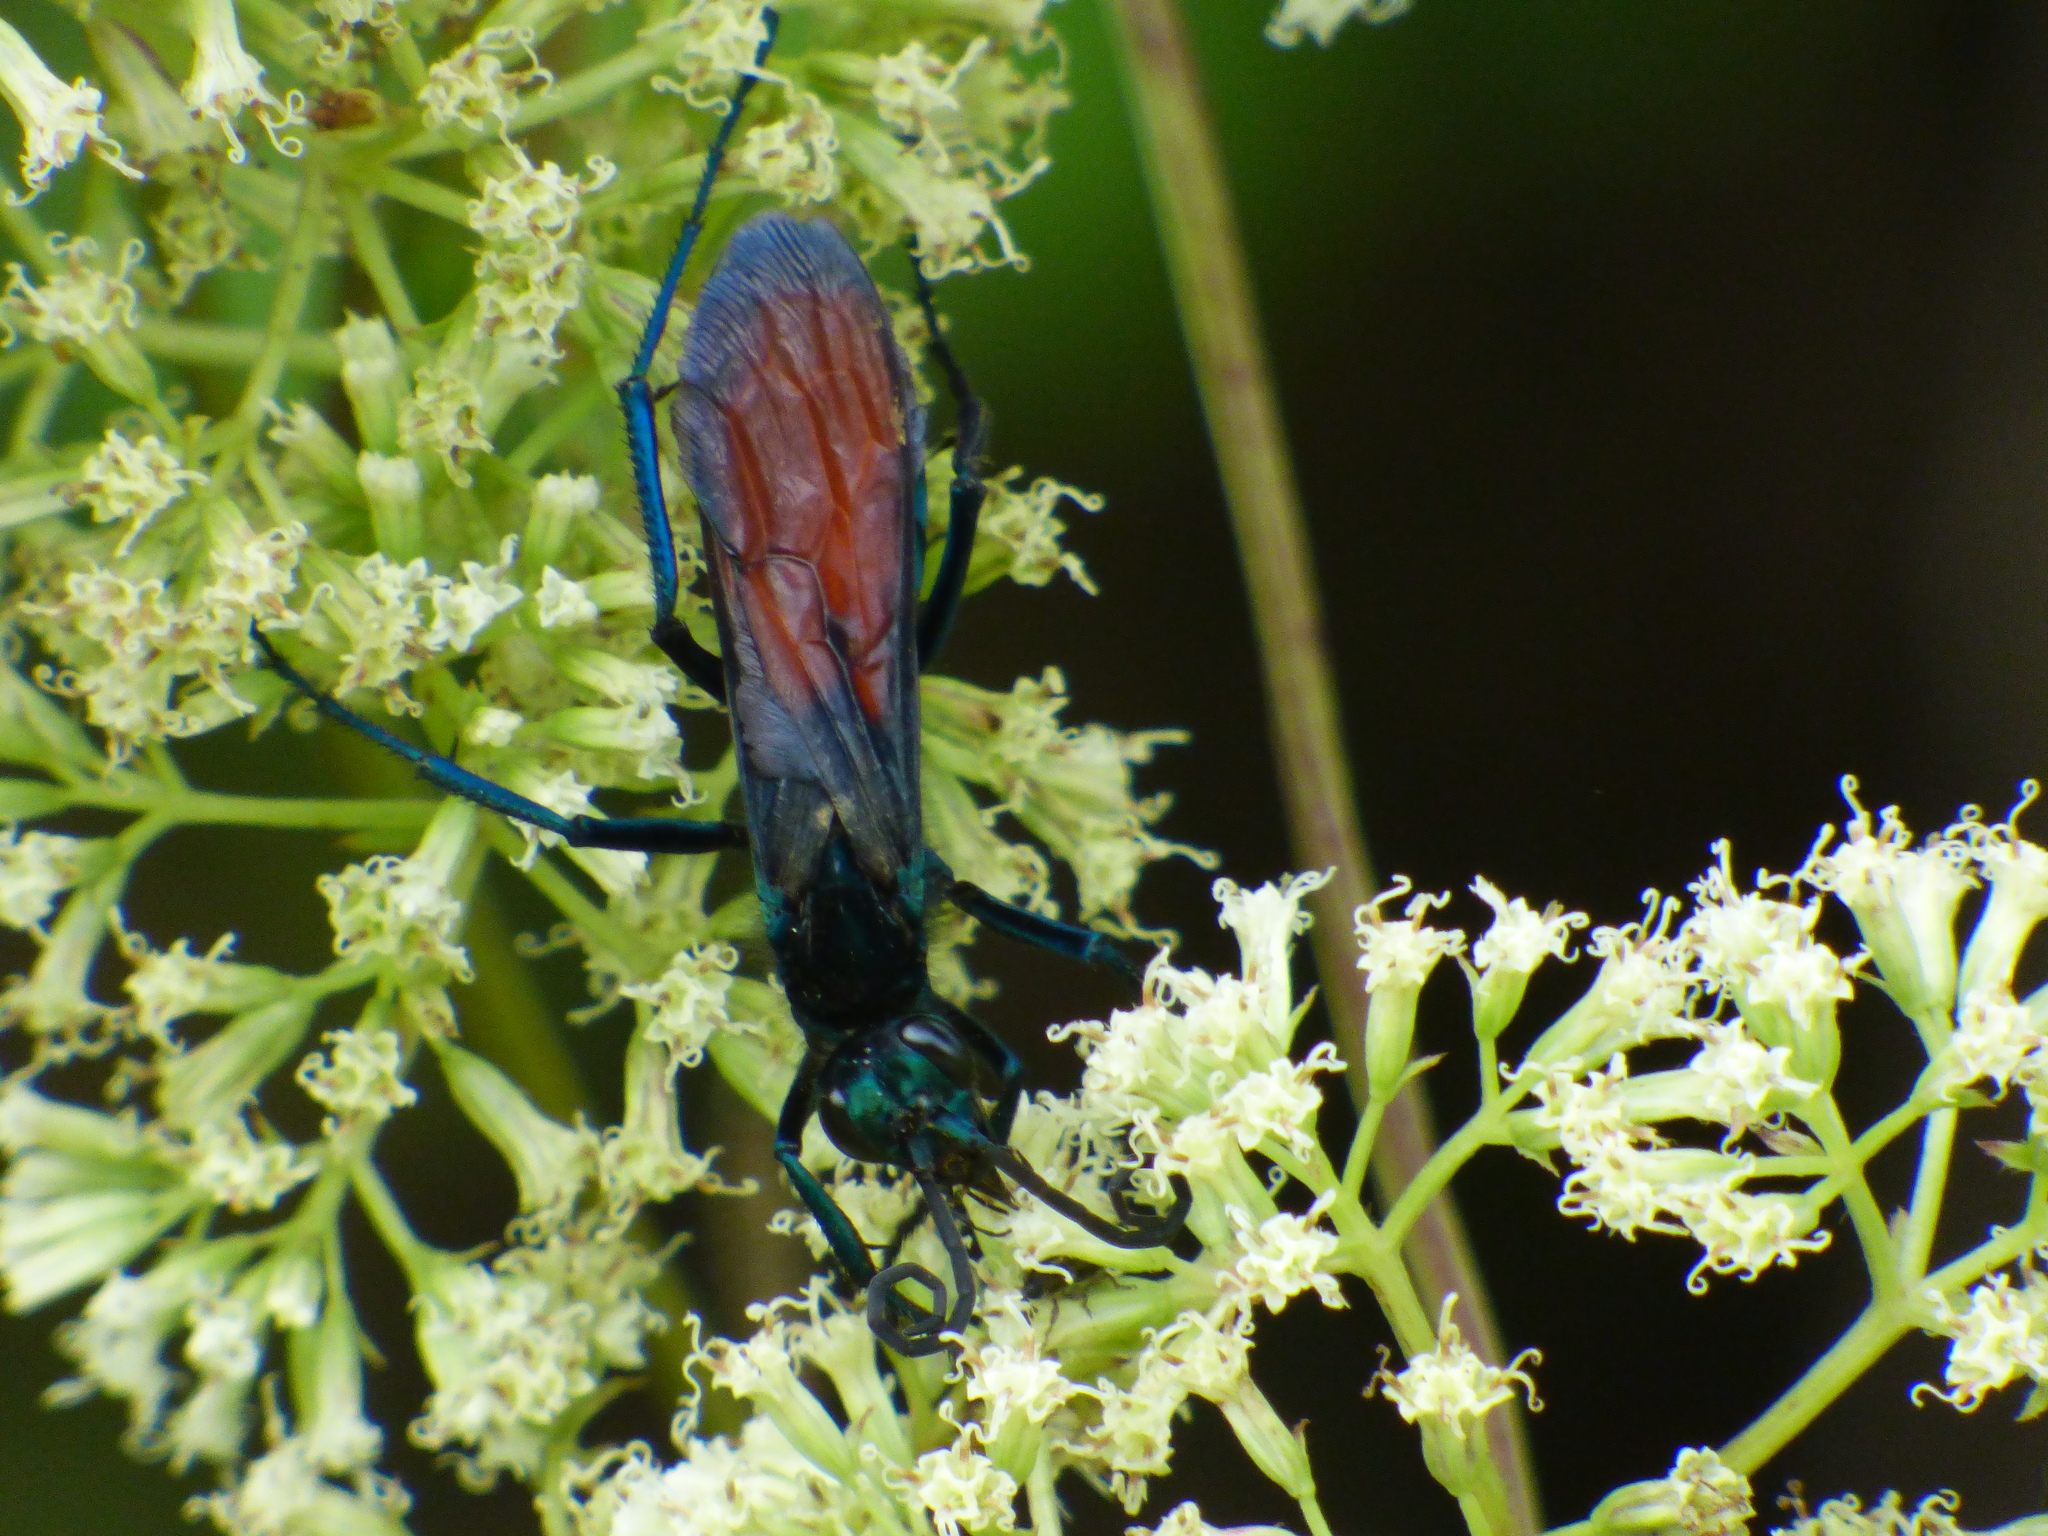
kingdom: Animalia
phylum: Arthropoda
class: Insecta
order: Hymenoptera
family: Pompilidae
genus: Pepsis
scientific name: Pepsis grossa
